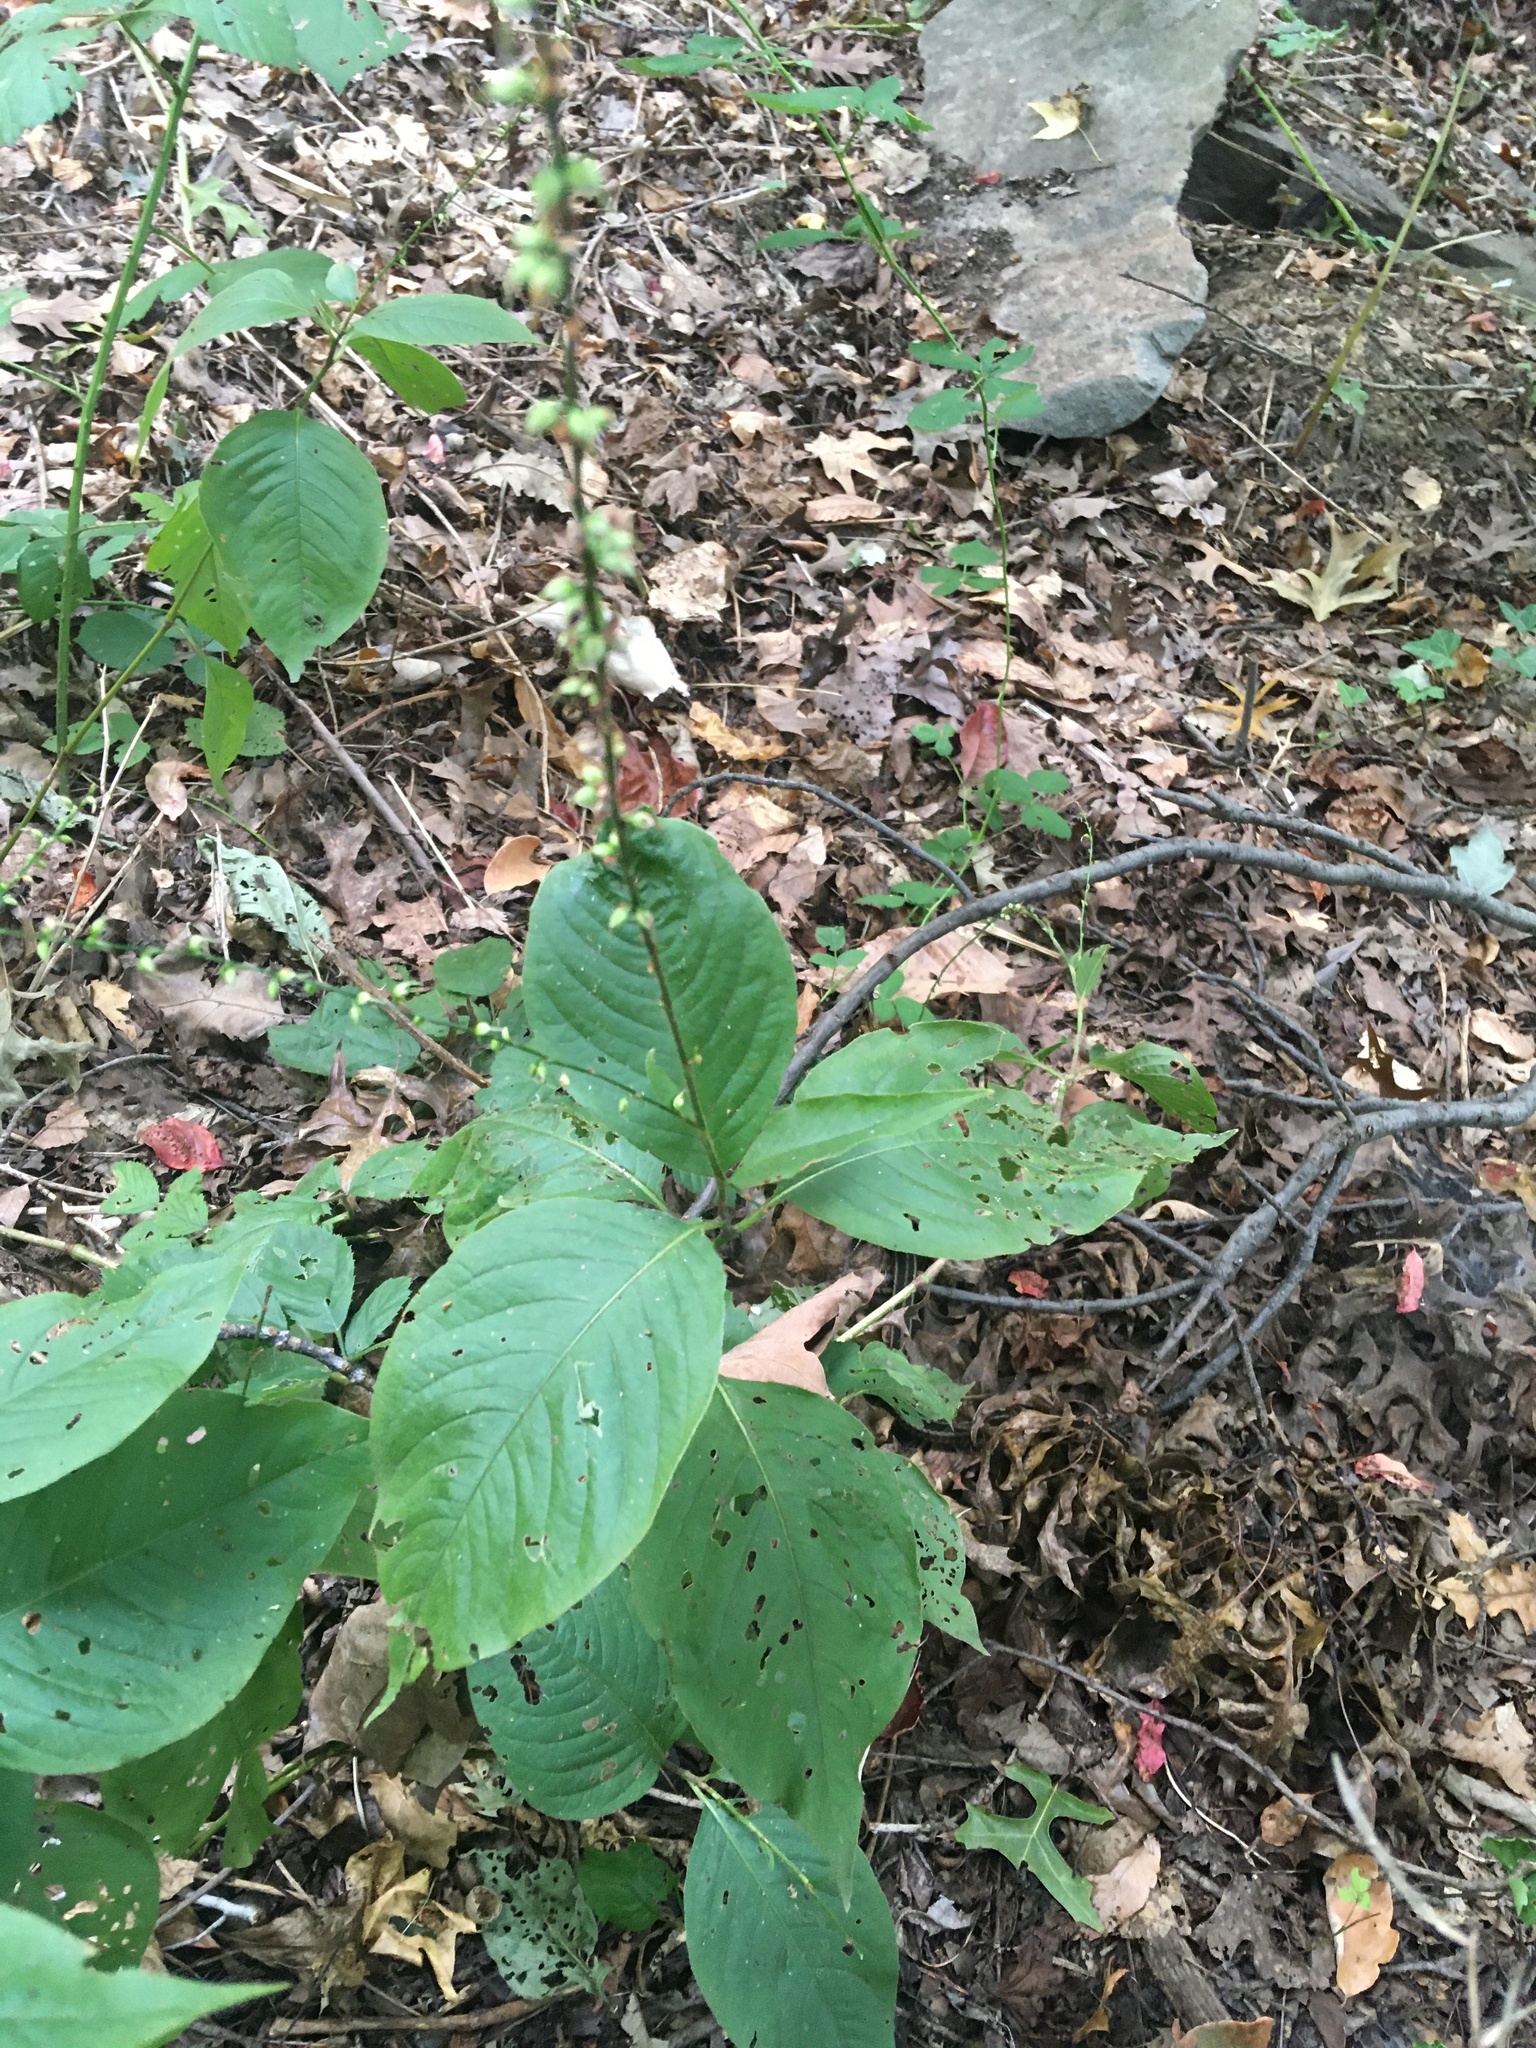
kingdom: Plantae
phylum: Tracheophyta
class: Magnoliopsida
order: Caryophyllales
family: Polygonaceae
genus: Persicaria
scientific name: Persicaria virginiana
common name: Jumpseed
